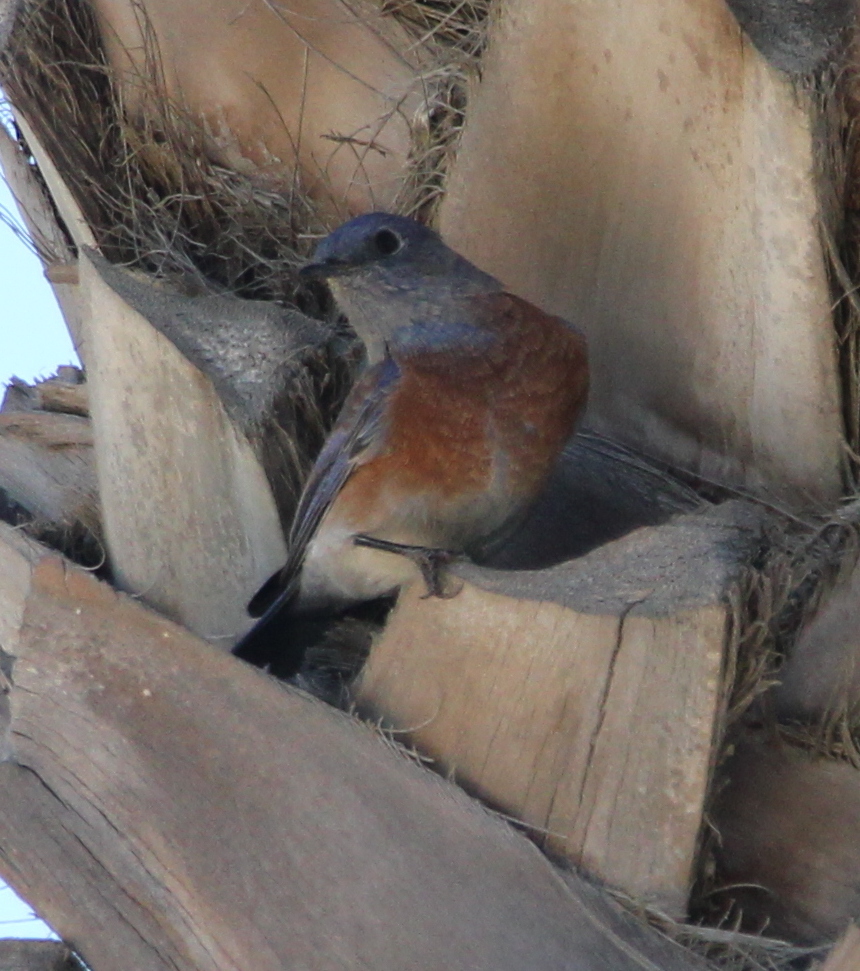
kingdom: Animalia
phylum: Chordata
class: Aves
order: Passeriformes
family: Turdidae
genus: Sialia
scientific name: Sialia mexicana
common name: Western bluebird
